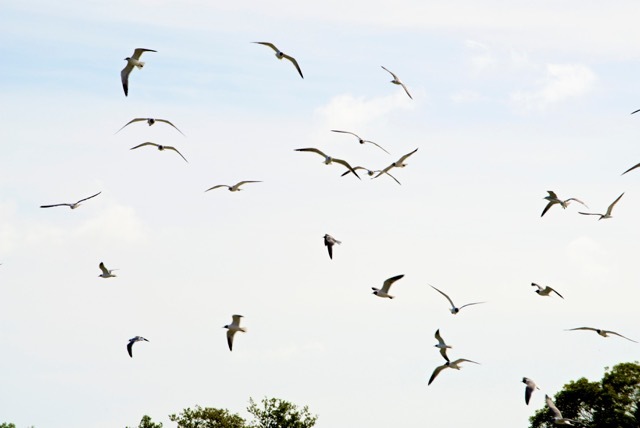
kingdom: Animalia
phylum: Chordata
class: Aves
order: Charadriiformes
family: Laridae
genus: Leucophaeus
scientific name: Leucophaeus atricilla
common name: Laughing gull
